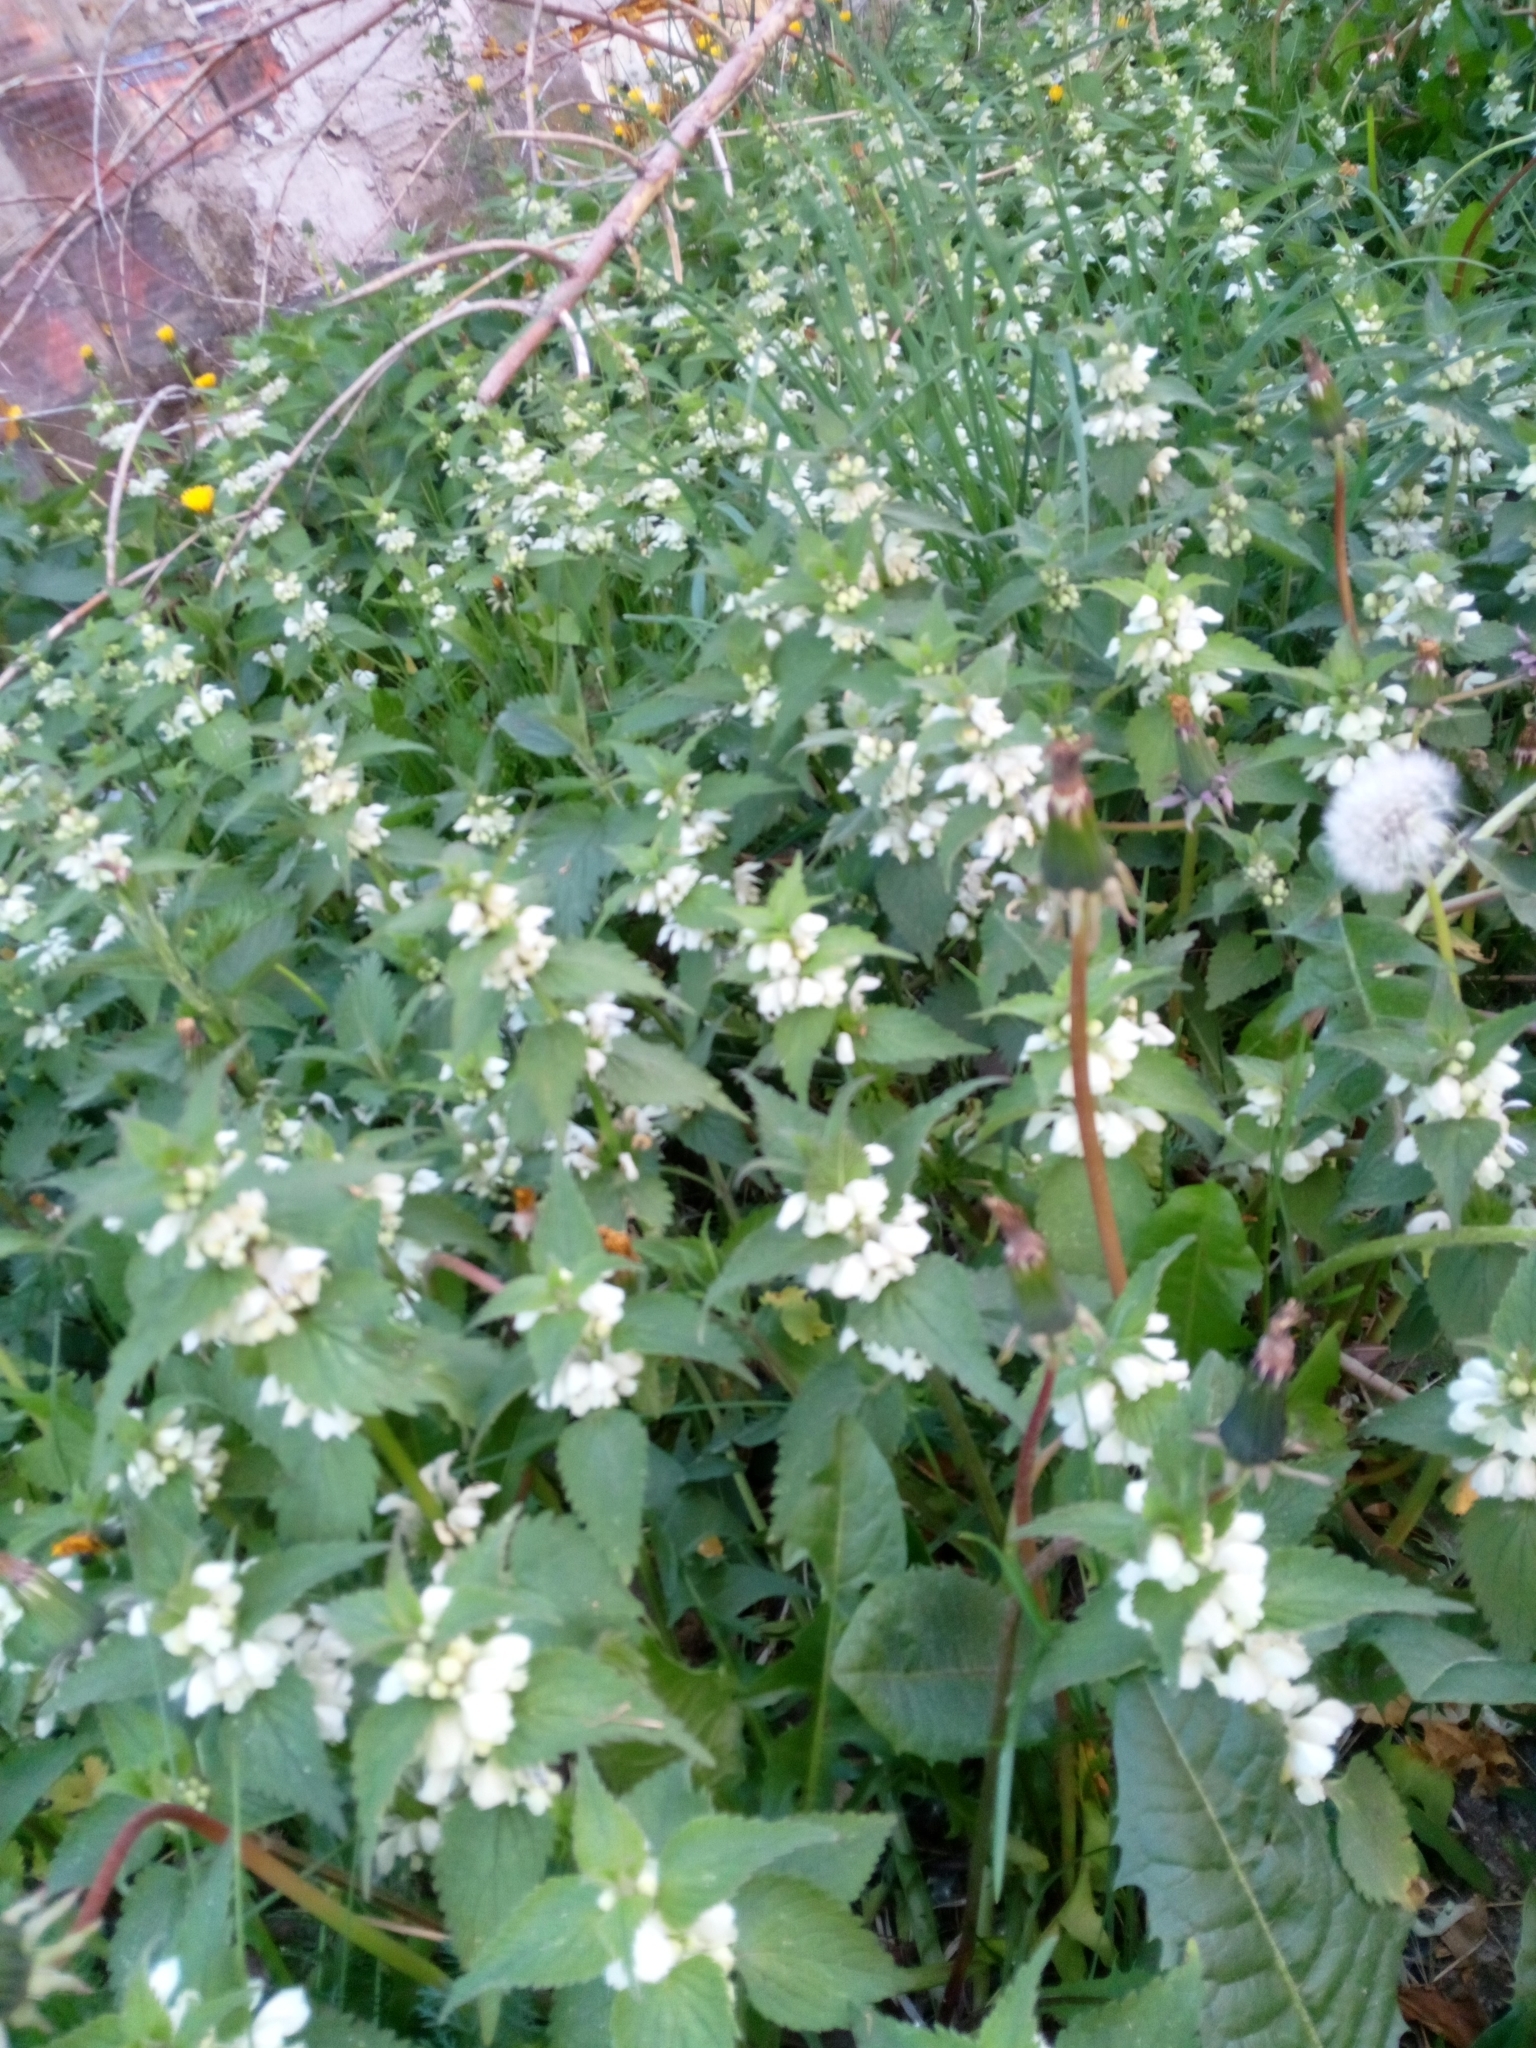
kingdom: Plantae
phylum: Tracheophyta
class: Magnoliopsida
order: Lamiales
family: Lamiaceae
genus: Lamium
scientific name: Lamium album
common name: White dead-nettle
